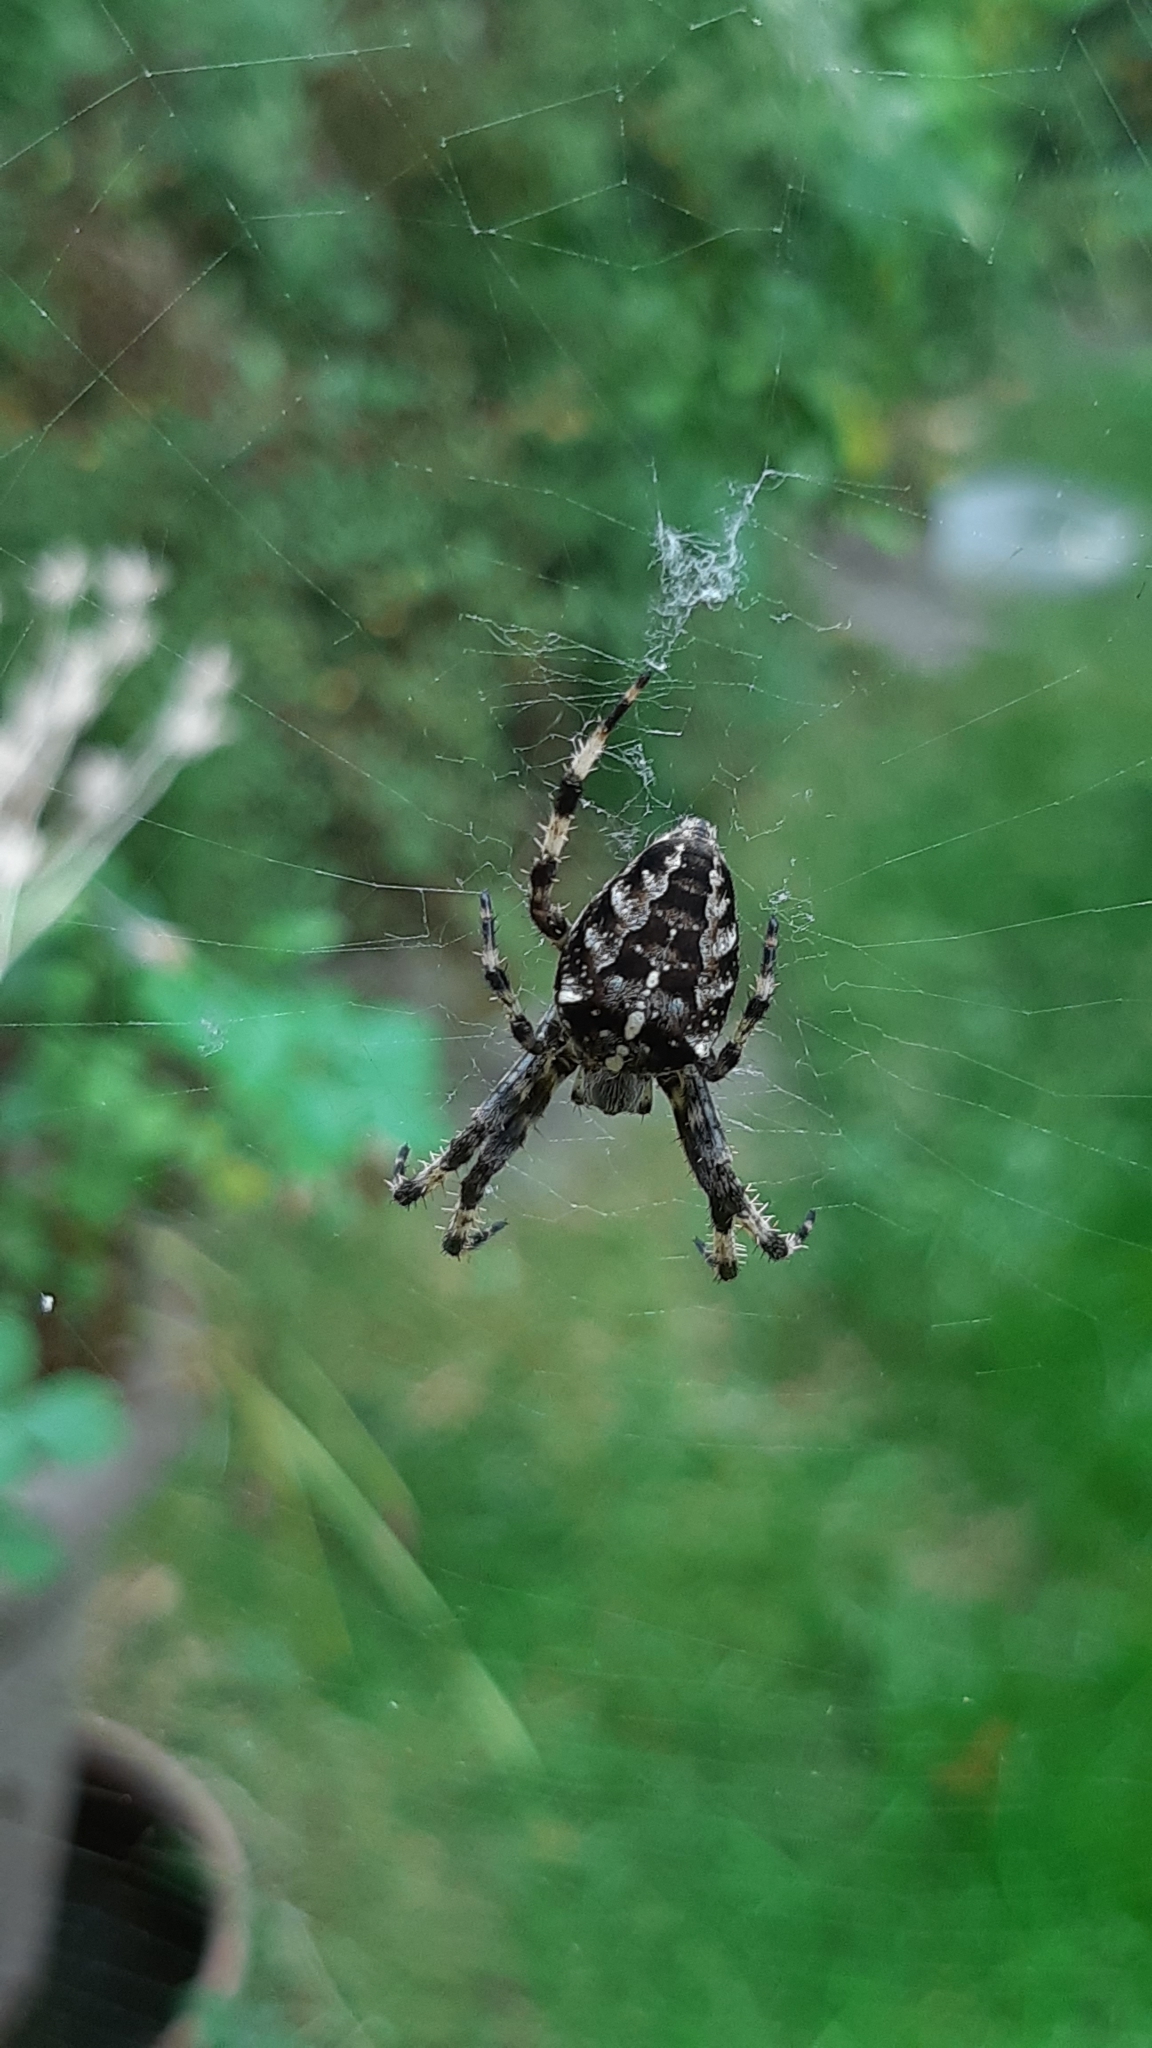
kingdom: Animalia
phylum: Arthropoda
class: Arachnida
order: Araneae
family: Araneidae
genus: Araneus
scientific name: Araneus diadematus
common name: Cross orbweaver
